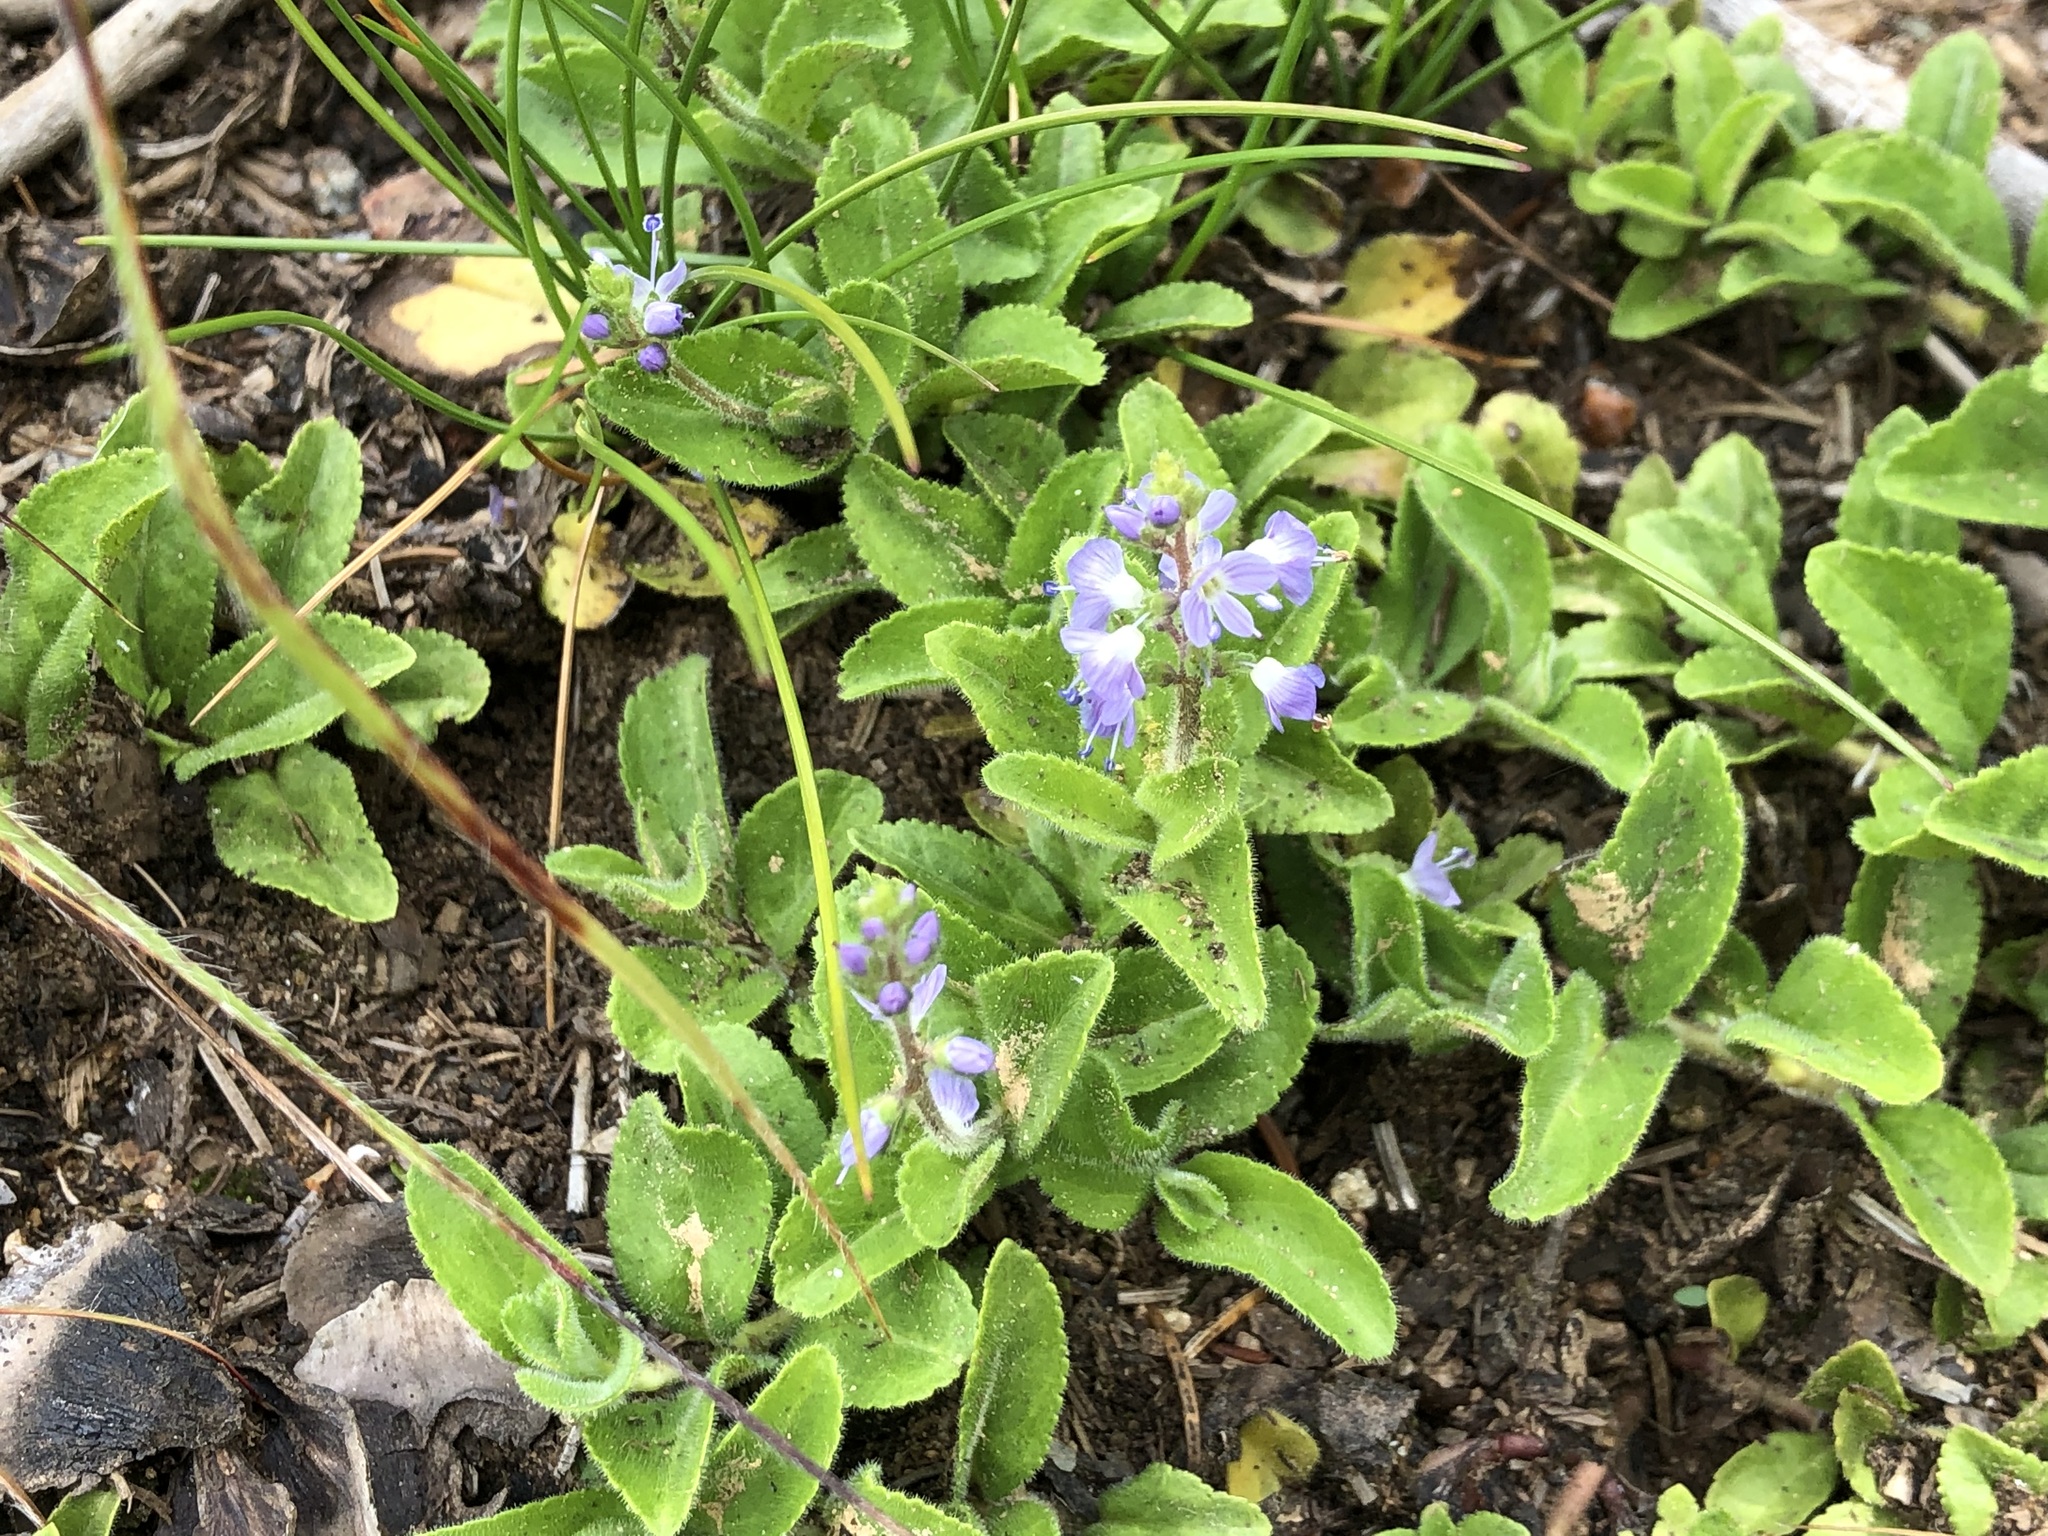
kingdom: Plantae
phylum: Tracheophyta
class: Magnoliopsida
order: Lamiales
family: Plantaginaceae
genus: Veronica
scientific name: Veronica officinalis
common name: Common speedwell
